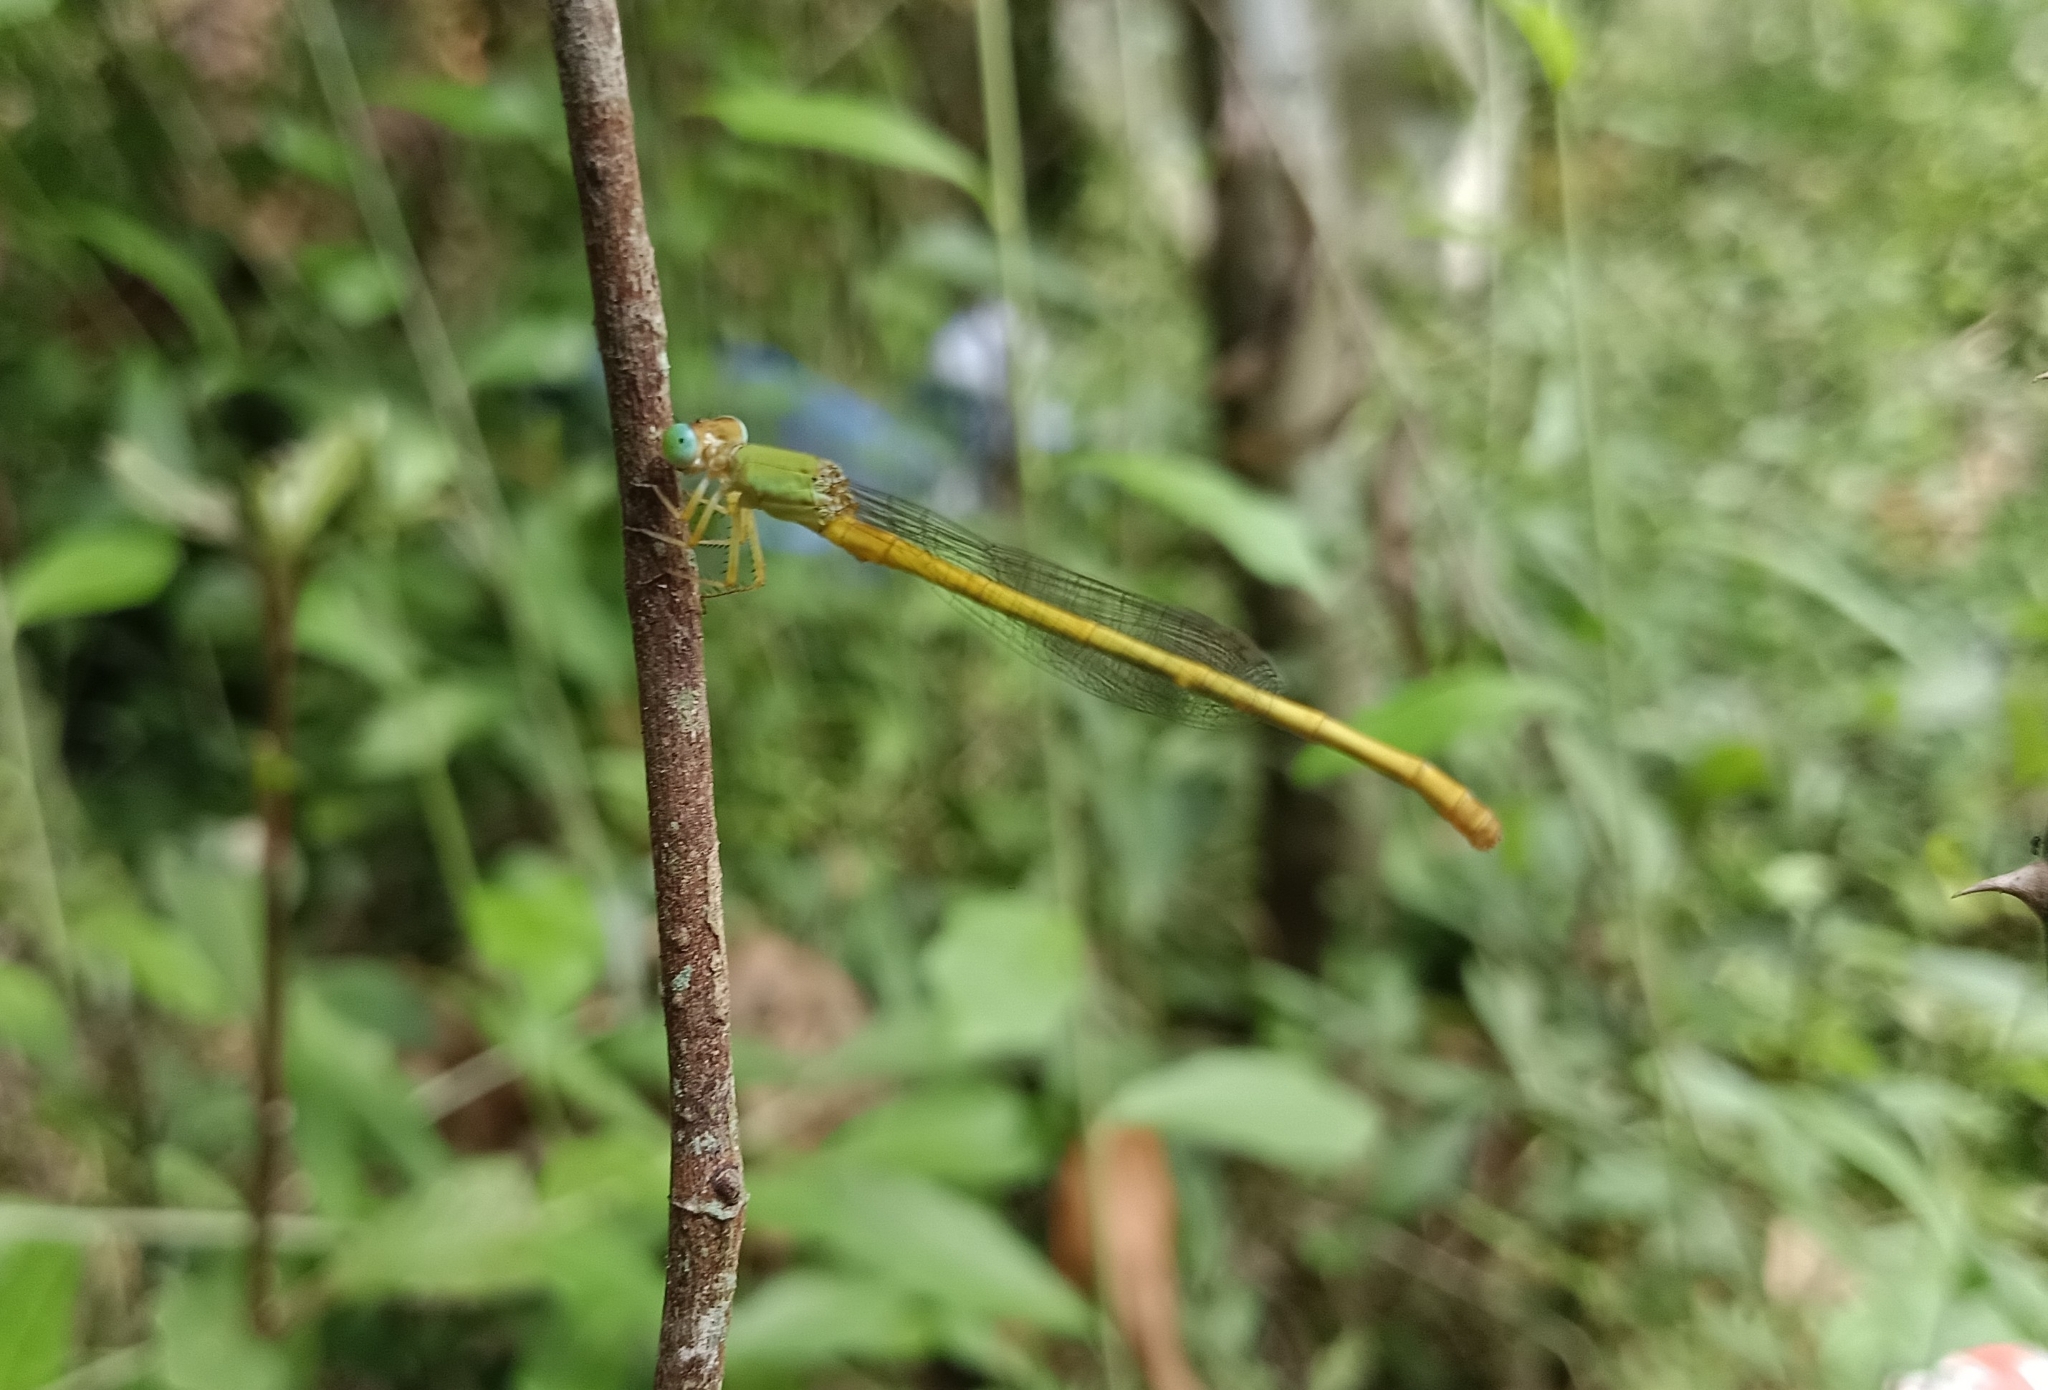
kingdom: Animalia
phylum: Arthropoda
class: Insecta
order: Odonata
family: Coenagrionidae
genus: Ceriagrion
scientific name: Ceriagrion coromandelianum
